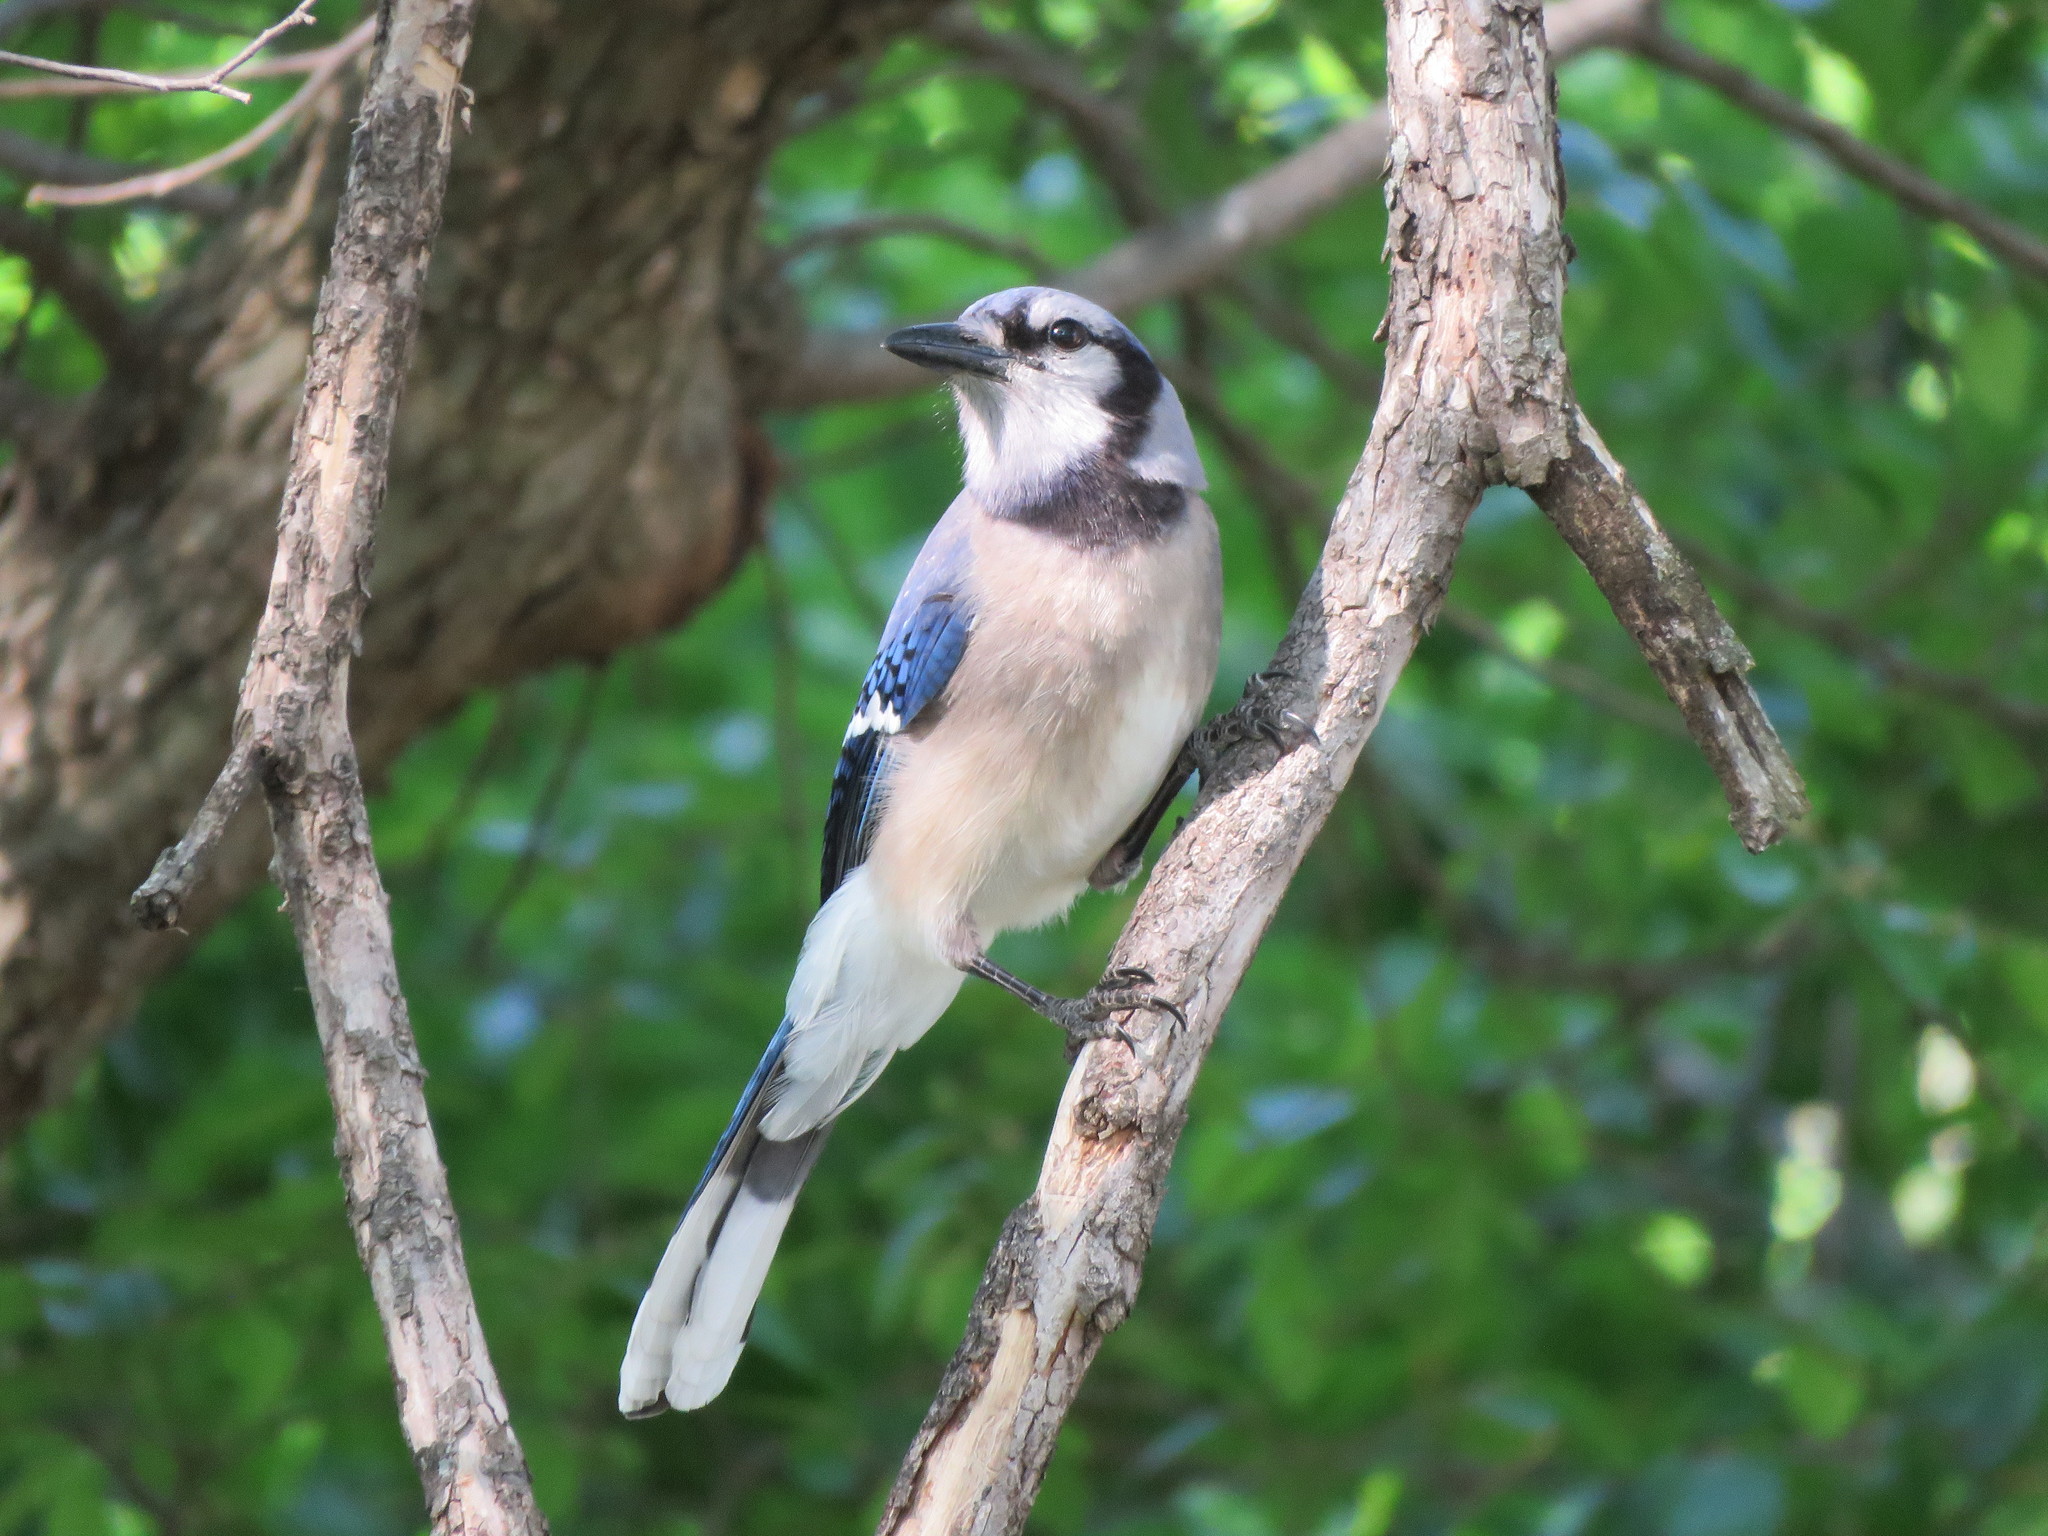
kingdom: Animalia
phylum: Chordata
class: Aves
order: Passeriformes
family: Corvidae
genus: Cyanocitta
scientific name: Cyanocitta cristata
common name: Blue jay
